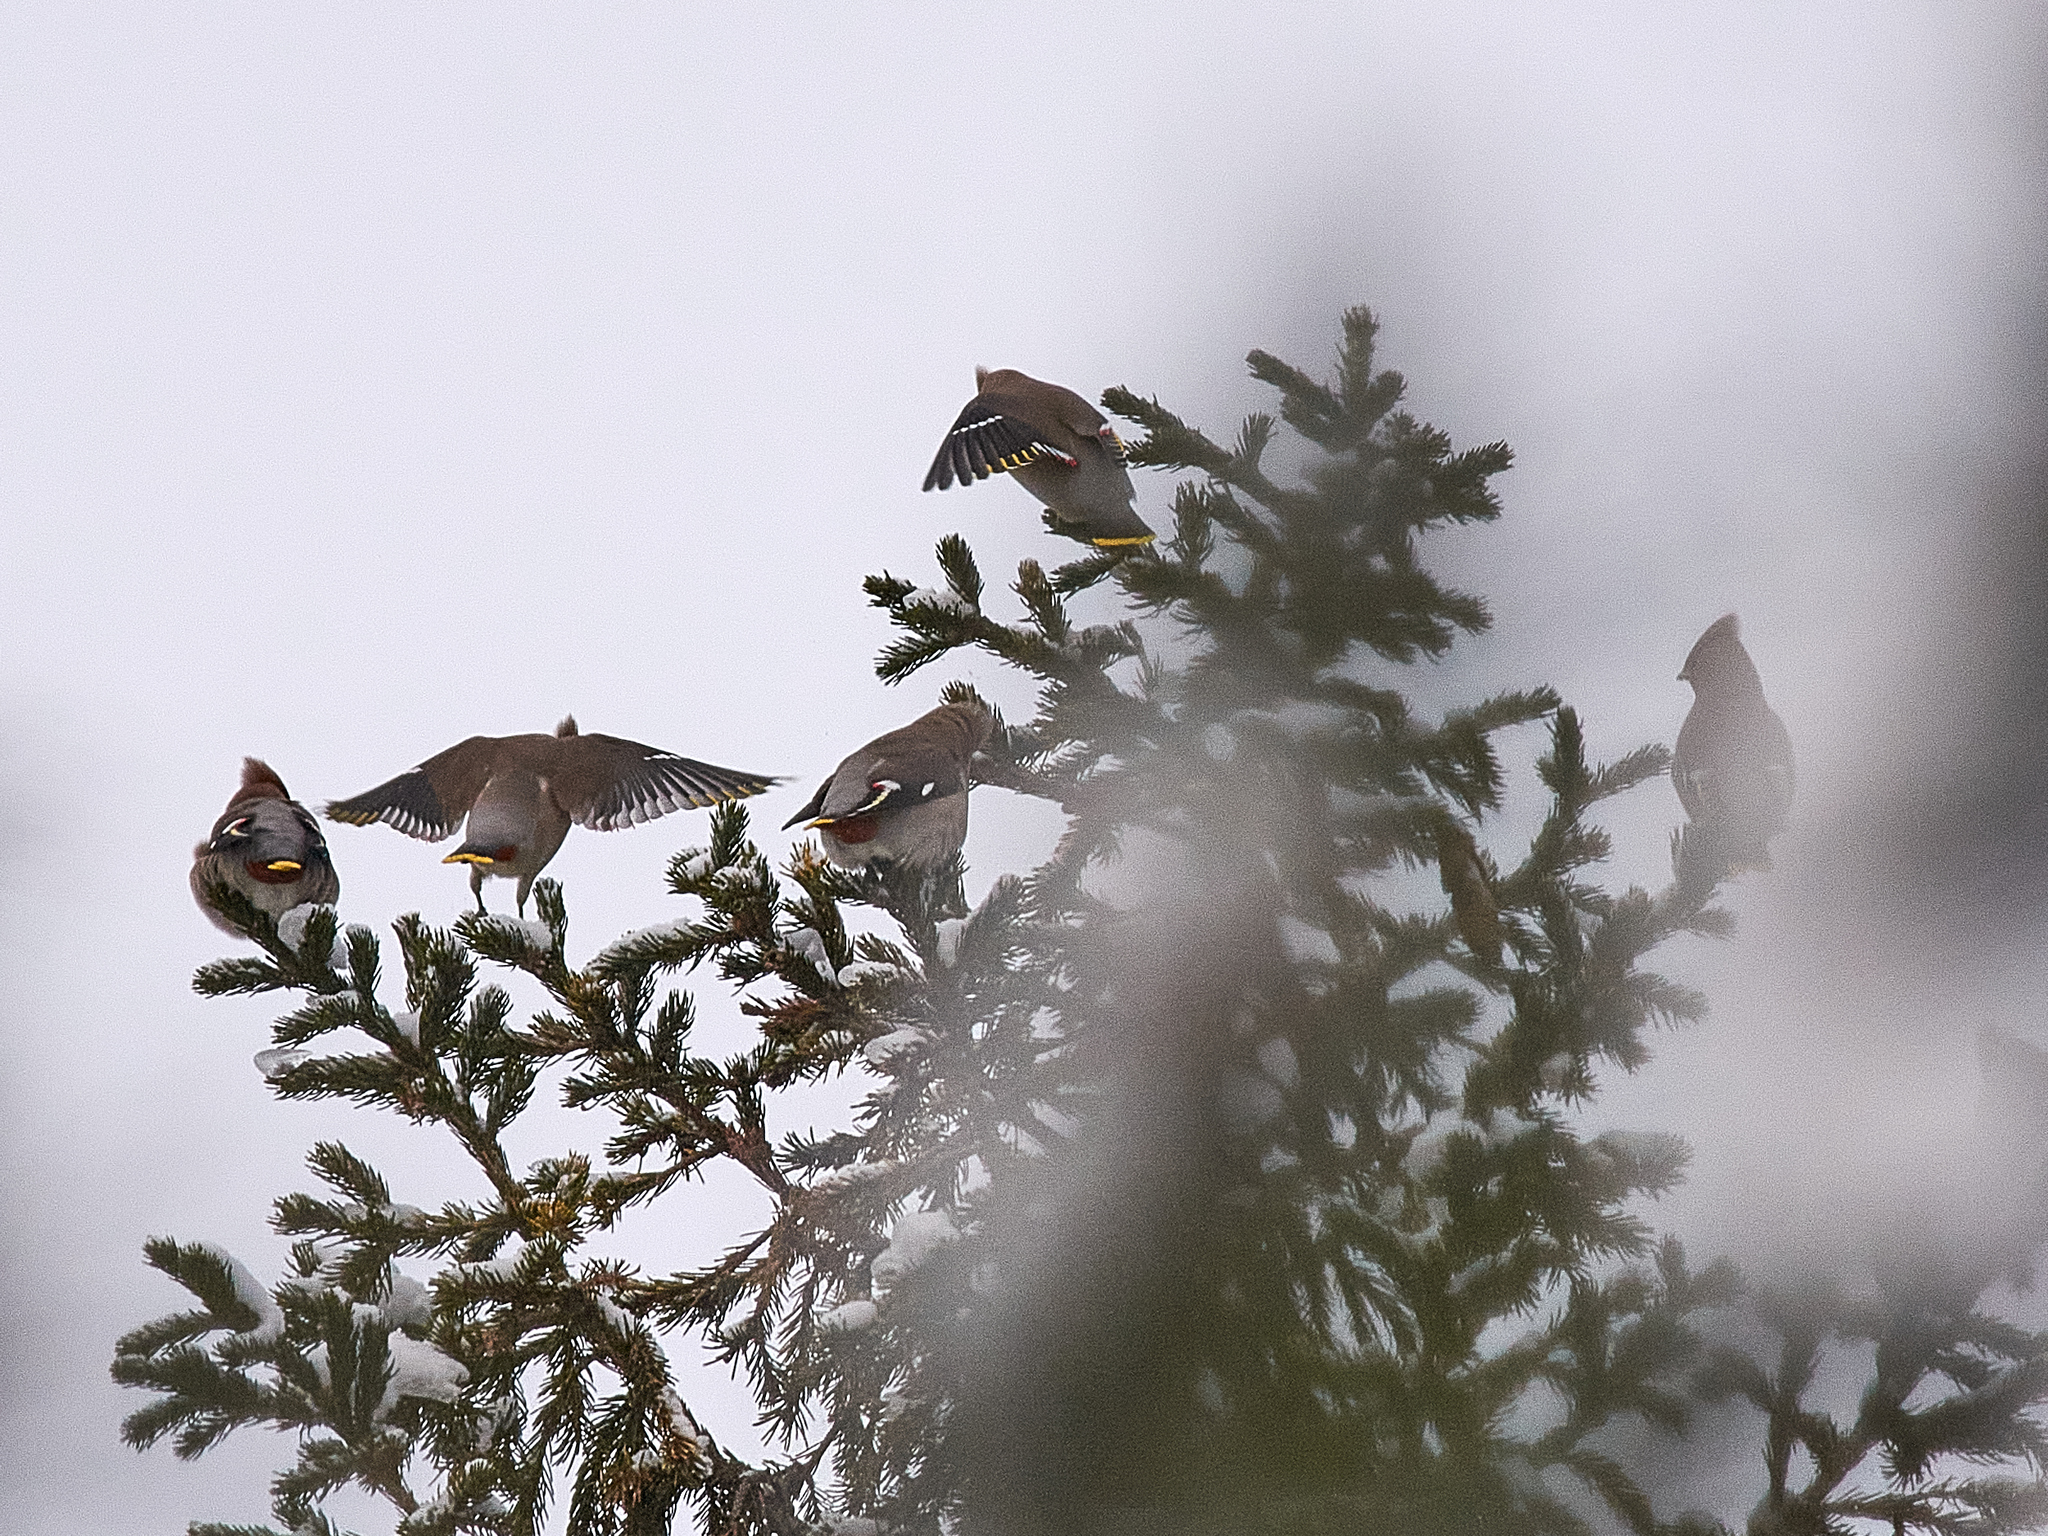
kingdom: Animalia
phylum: Chordata
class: Aves
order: Passeriformes
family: Bombycillidae
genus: Bombycilla
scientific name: Bombycilla garrulus
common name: Bohemian waxwing
